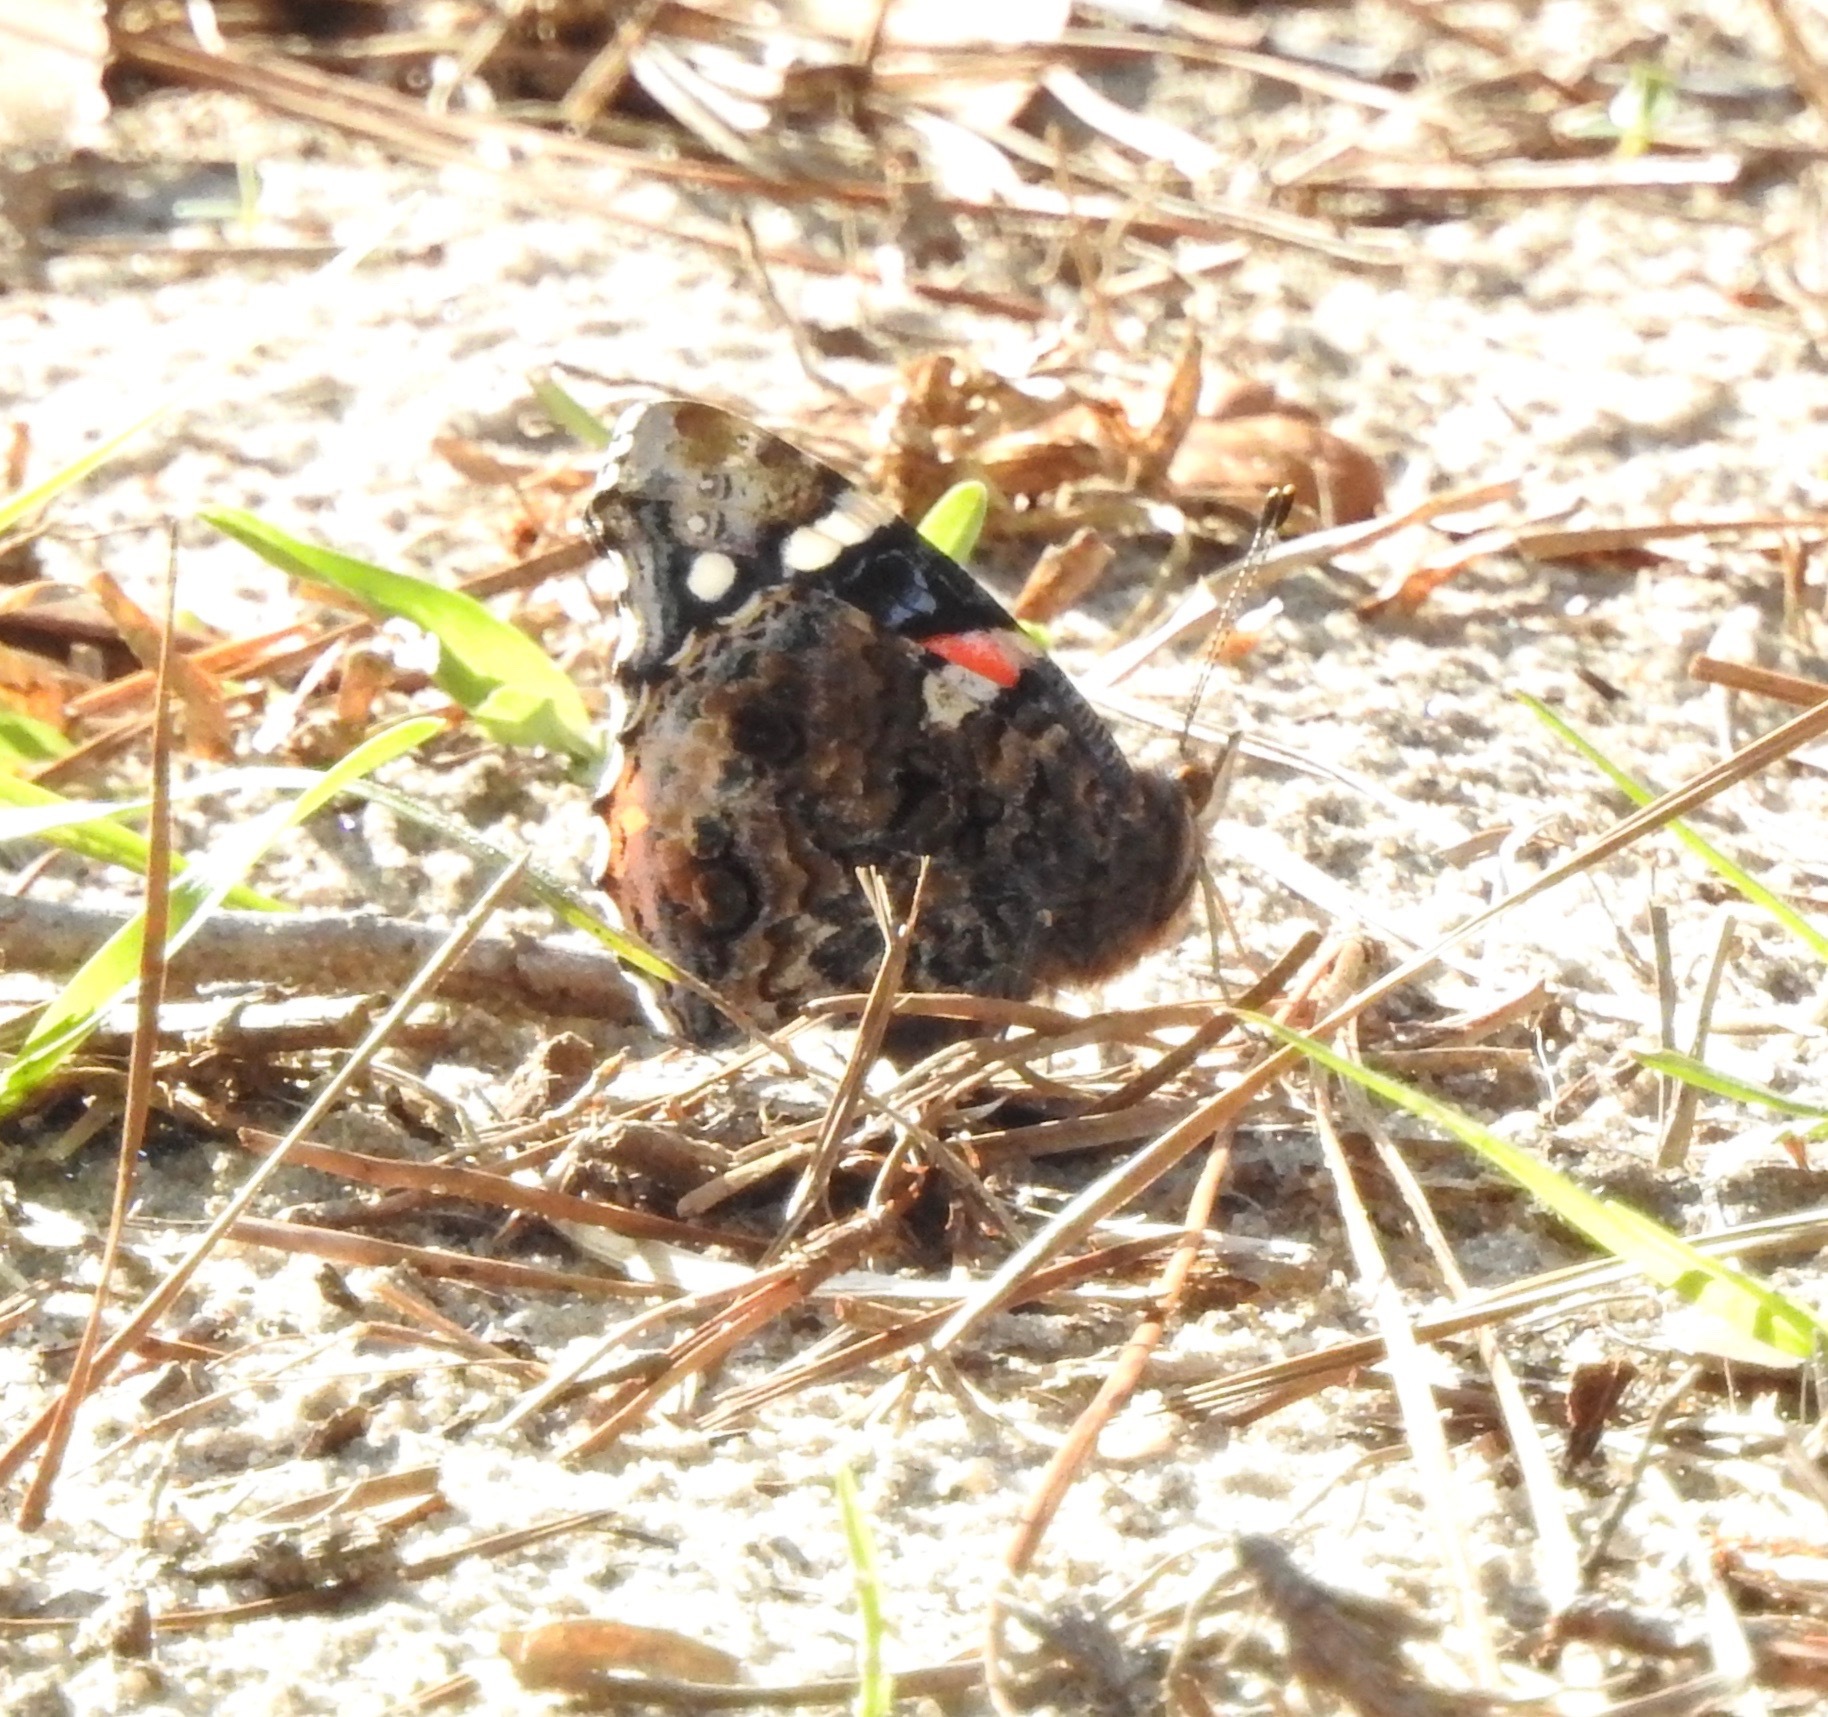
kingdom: Animalia
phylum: Arthropoda
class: Insecta
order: Lepidoptera
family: Nymphalidae
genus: Vanessa
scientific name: Vanessa atalanta
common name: Red admiral
